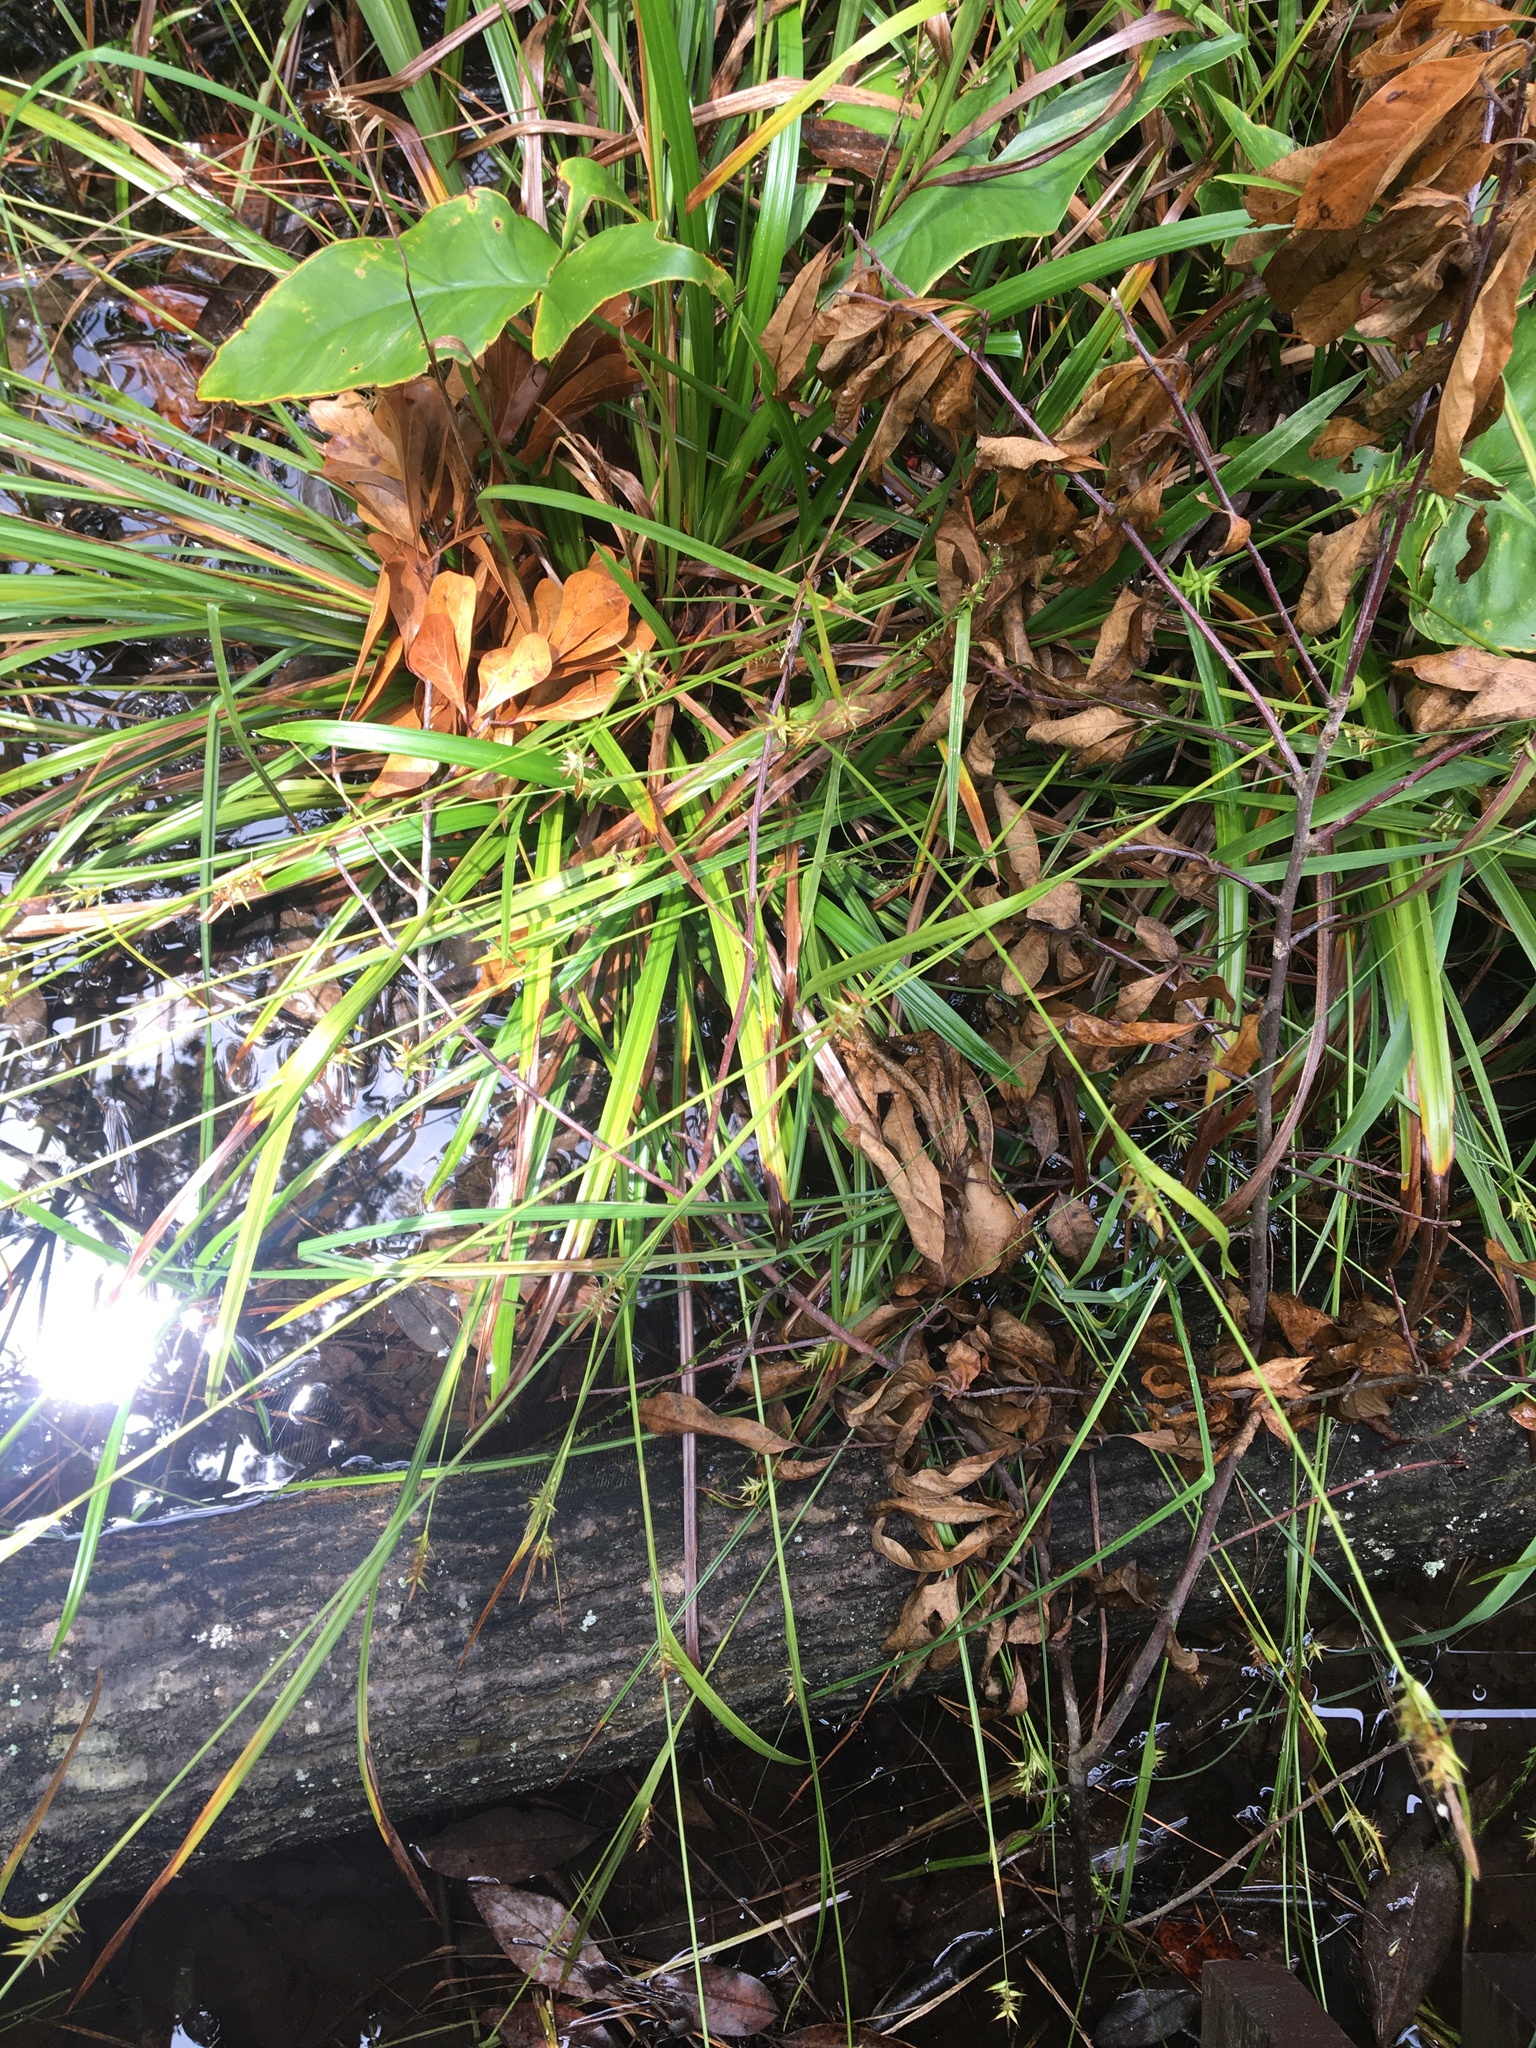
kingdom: Plantae
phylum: Tracheophyta
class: Liliopsida
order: Poales
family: Cyperaceae
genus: Carex
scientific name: Carex lonchocarpa
